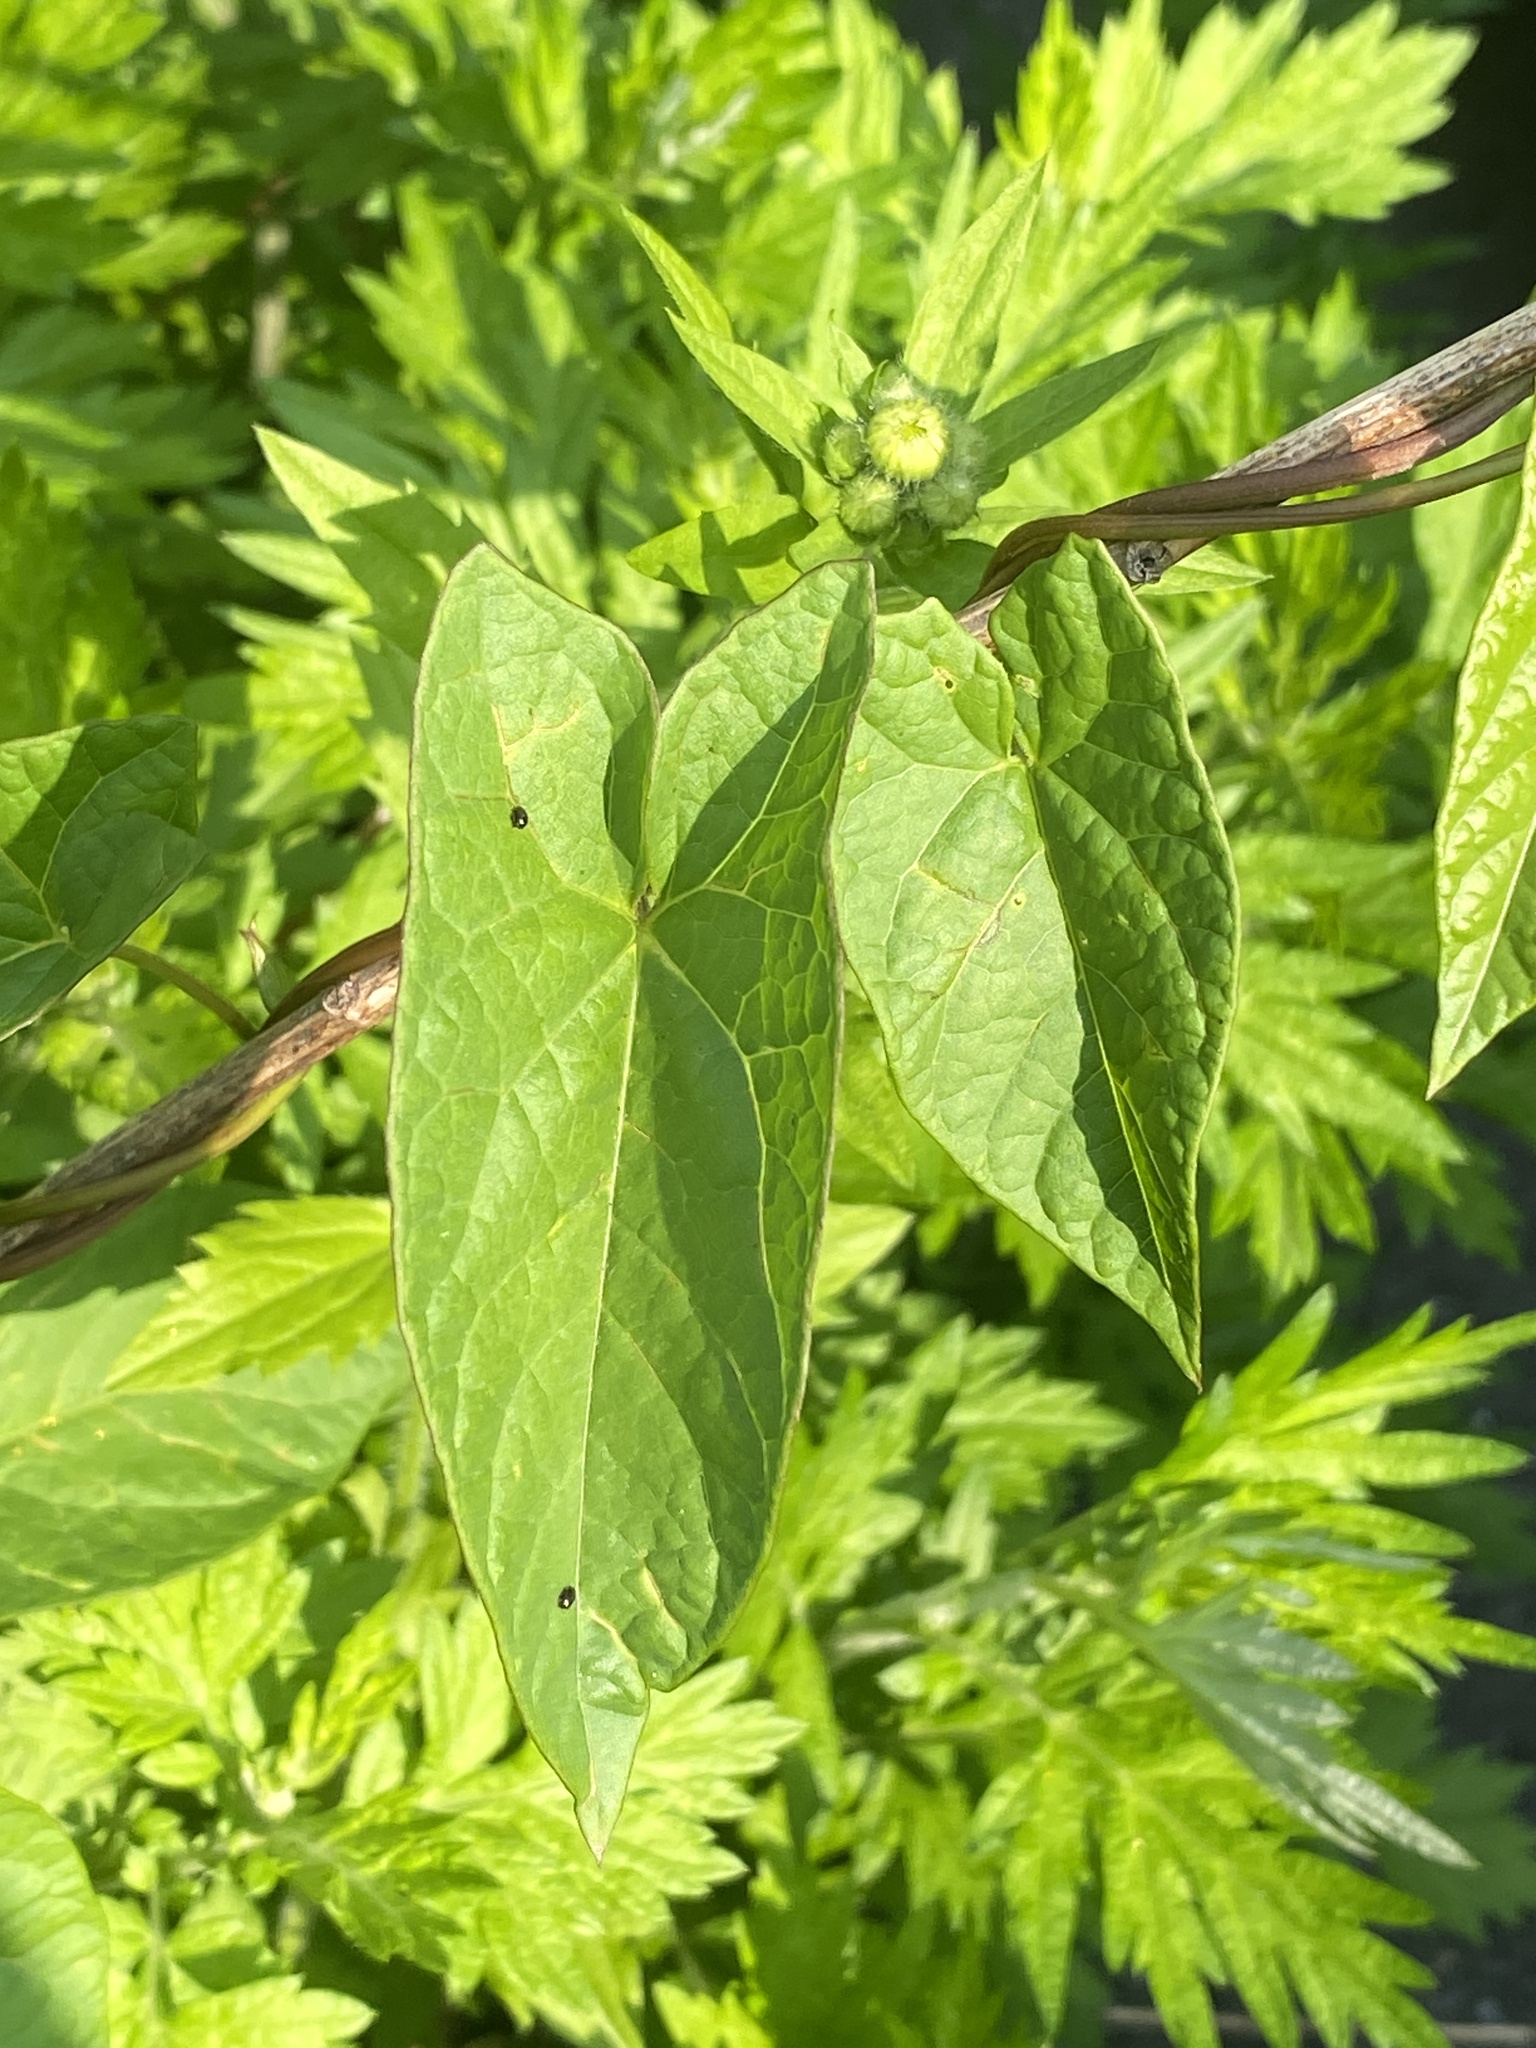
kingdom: Plantae
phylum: Tracheophyta
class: Magnoliopsida
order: Solanales
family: Convolvulaceae
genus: Calystegia
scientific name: Calystegia sepium
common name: Hedge bindweed
